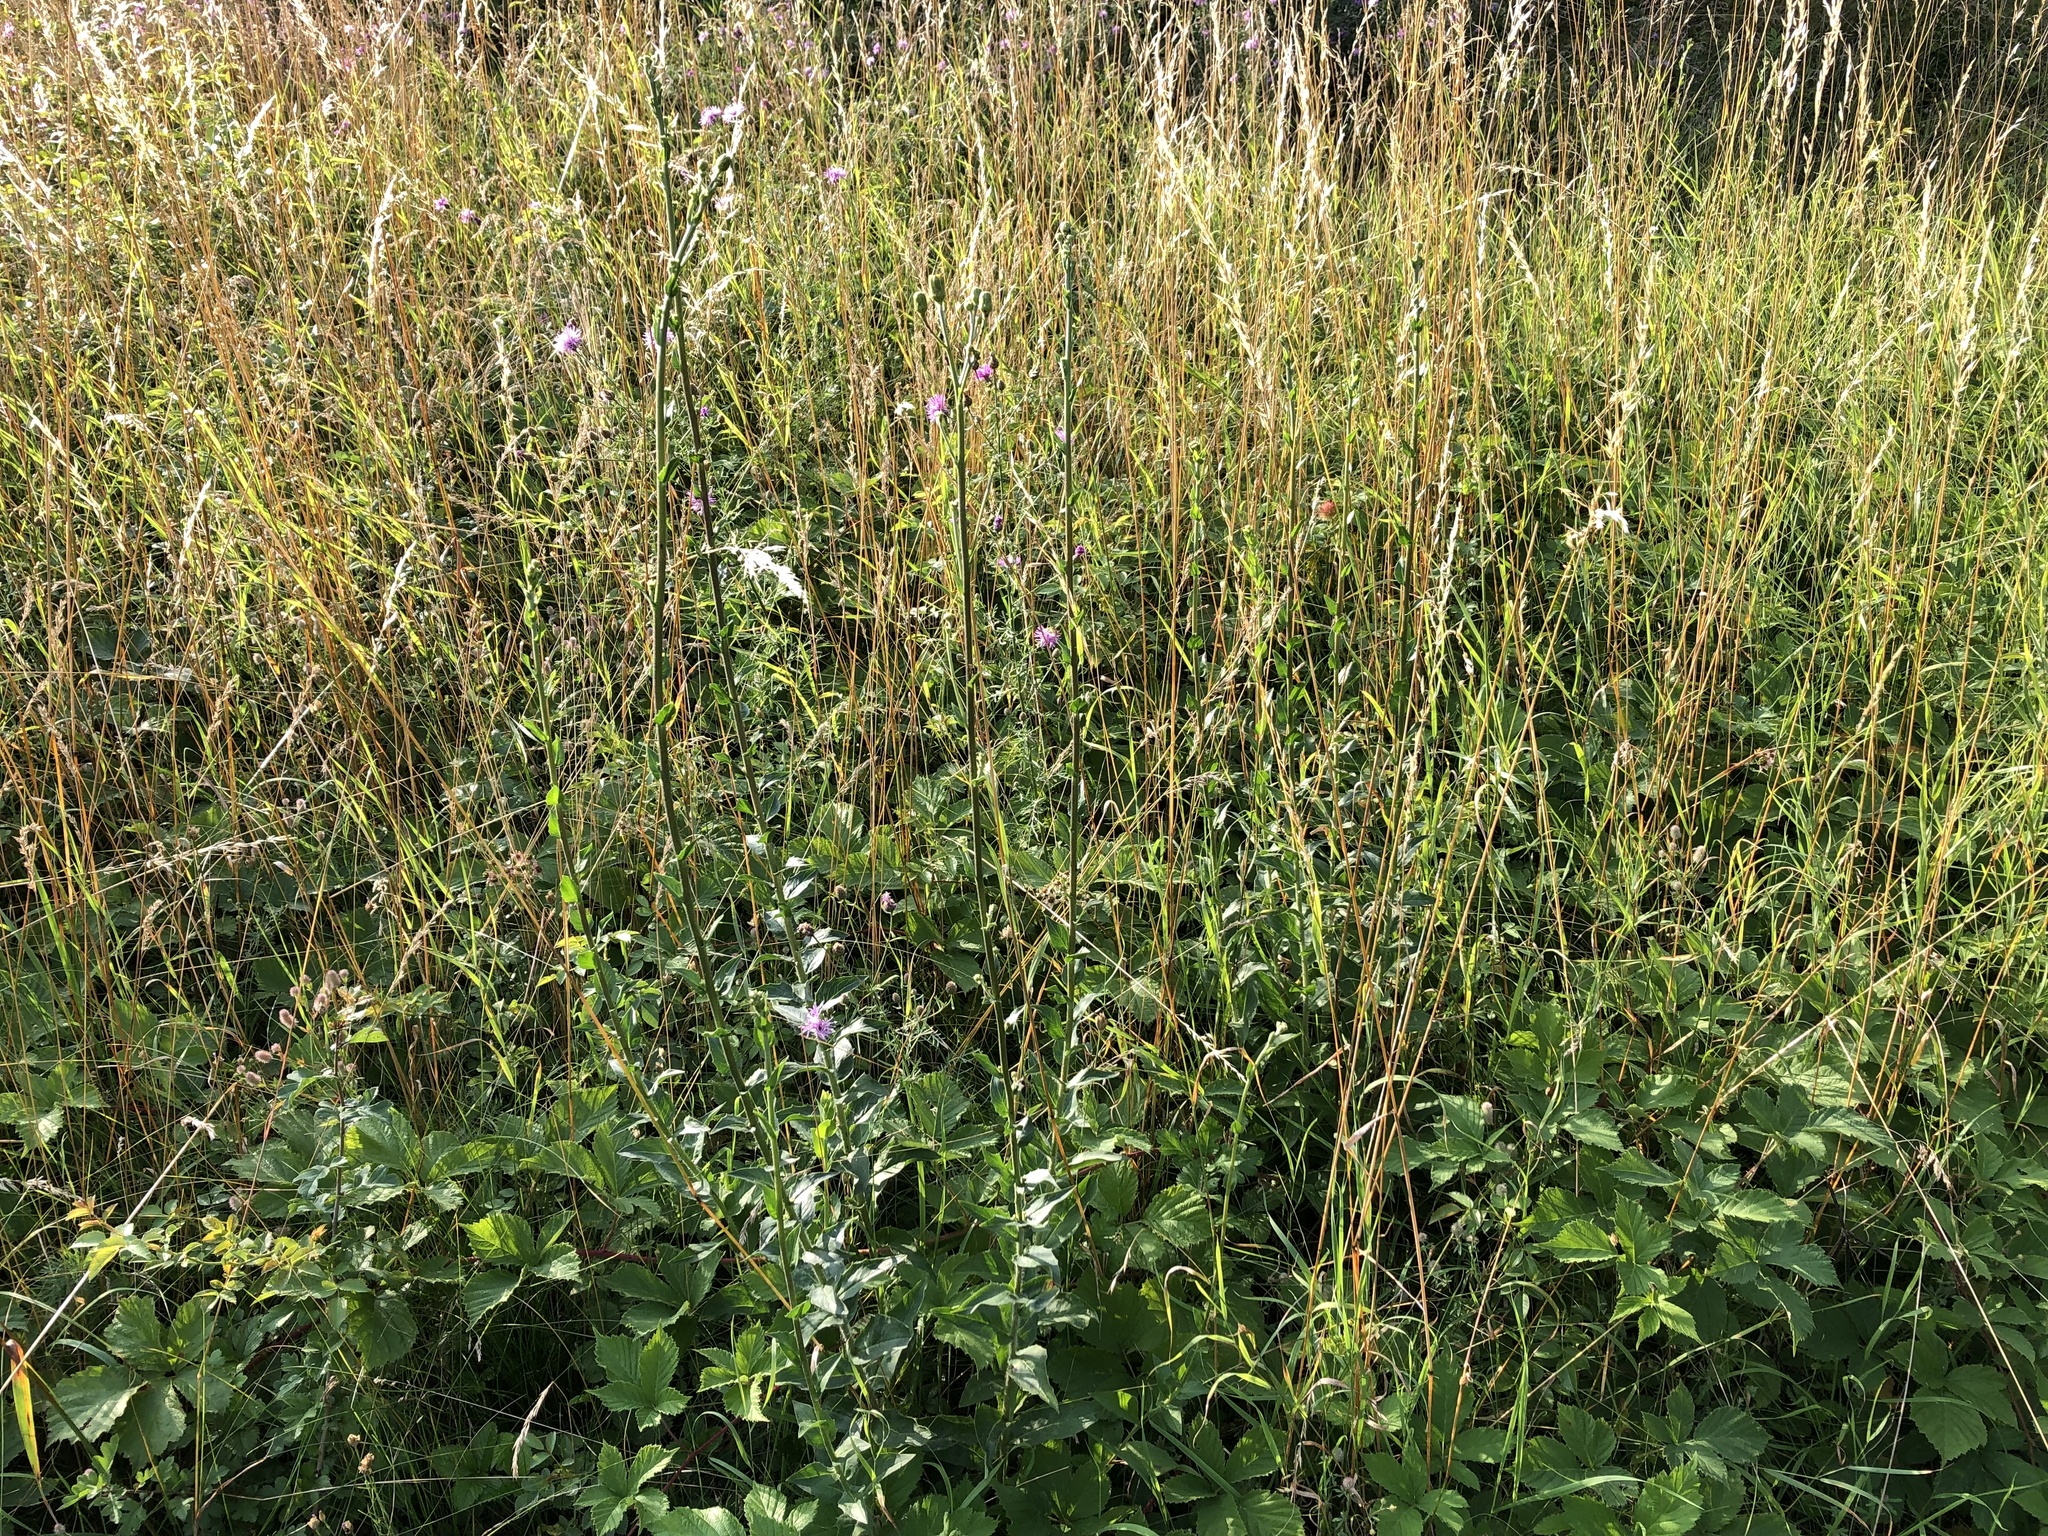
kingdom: Plantae
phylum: Tracheophyta
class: Magnoliopsida
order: Asterales
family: Asteraceae
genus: Hieracium
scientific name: Hieracium sabaudum
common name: New england hawkweed
